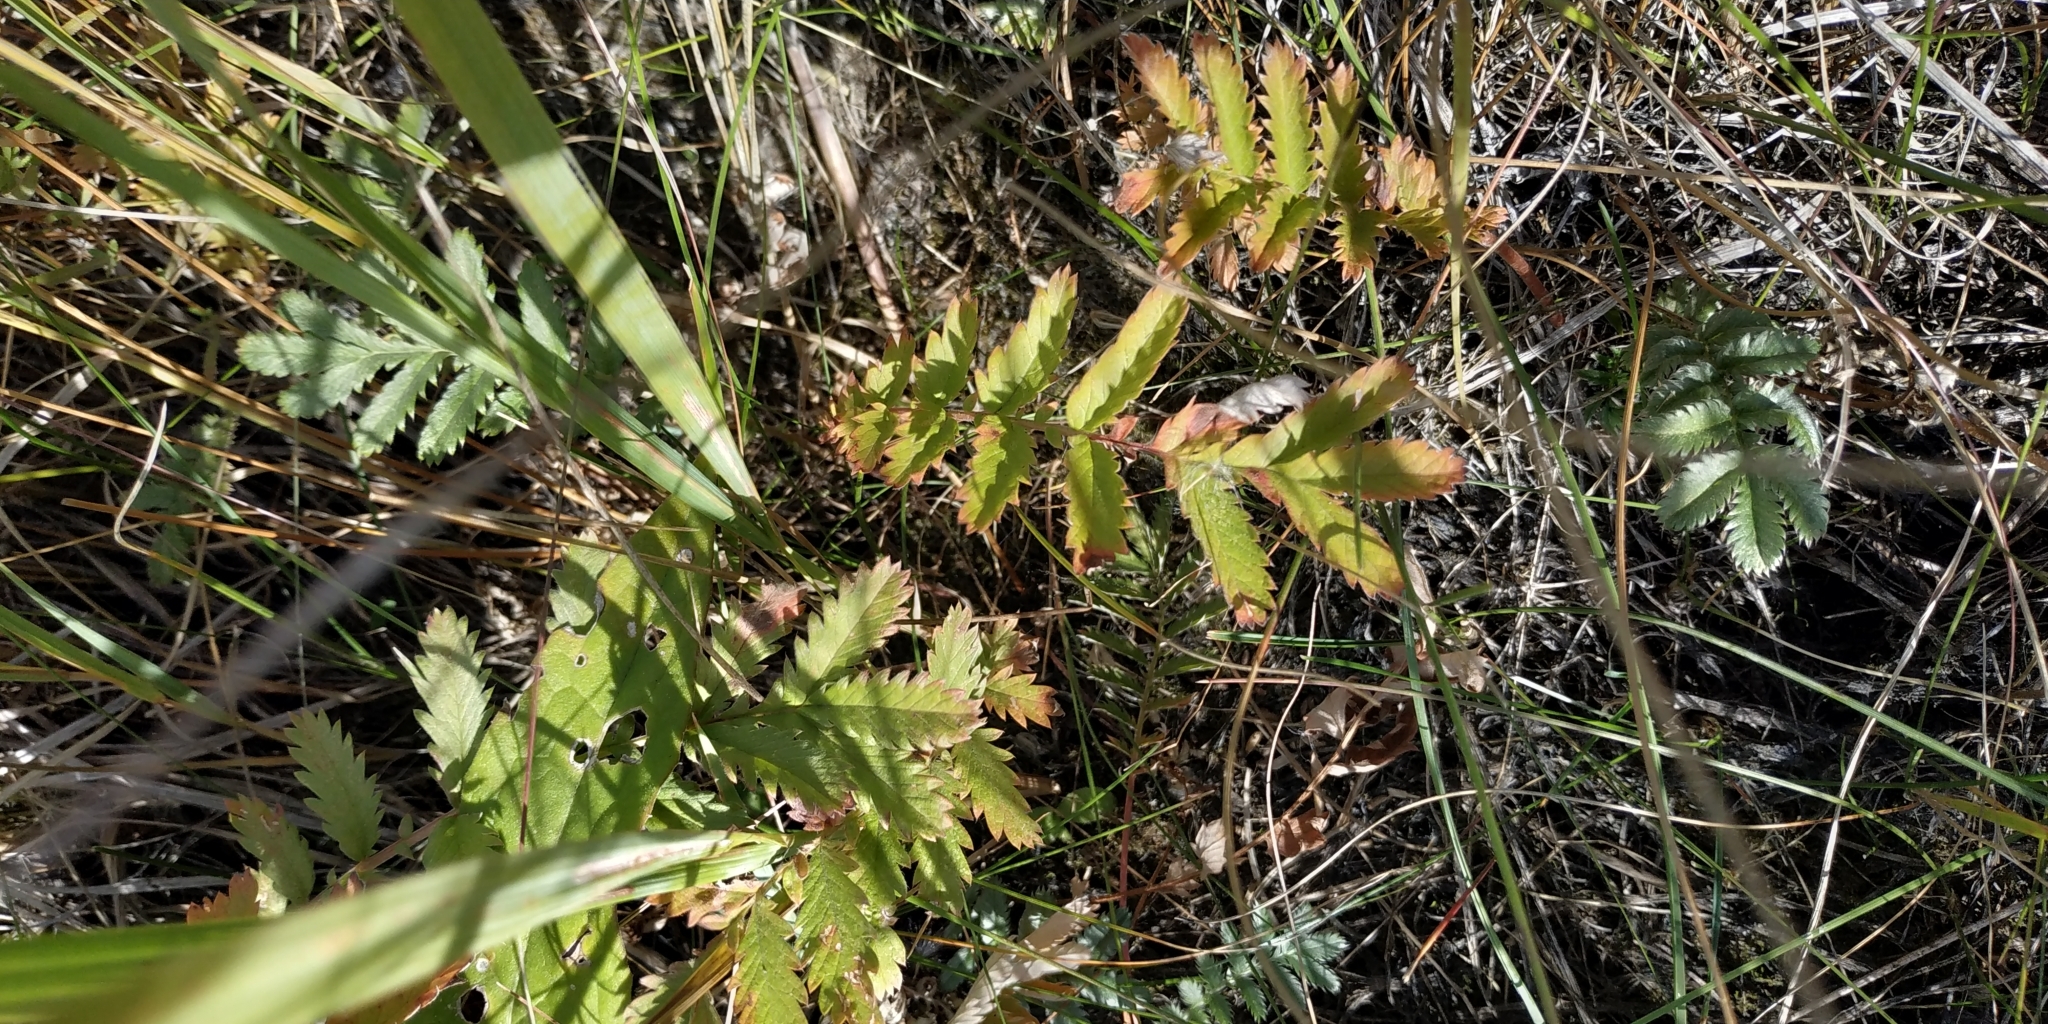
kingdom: Plantae
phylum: Tracheophyta
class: Magnoliopsida
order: Rosales
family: Rosaceae
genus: Argentina
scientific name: Argentina anserina
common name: Common silverweed
